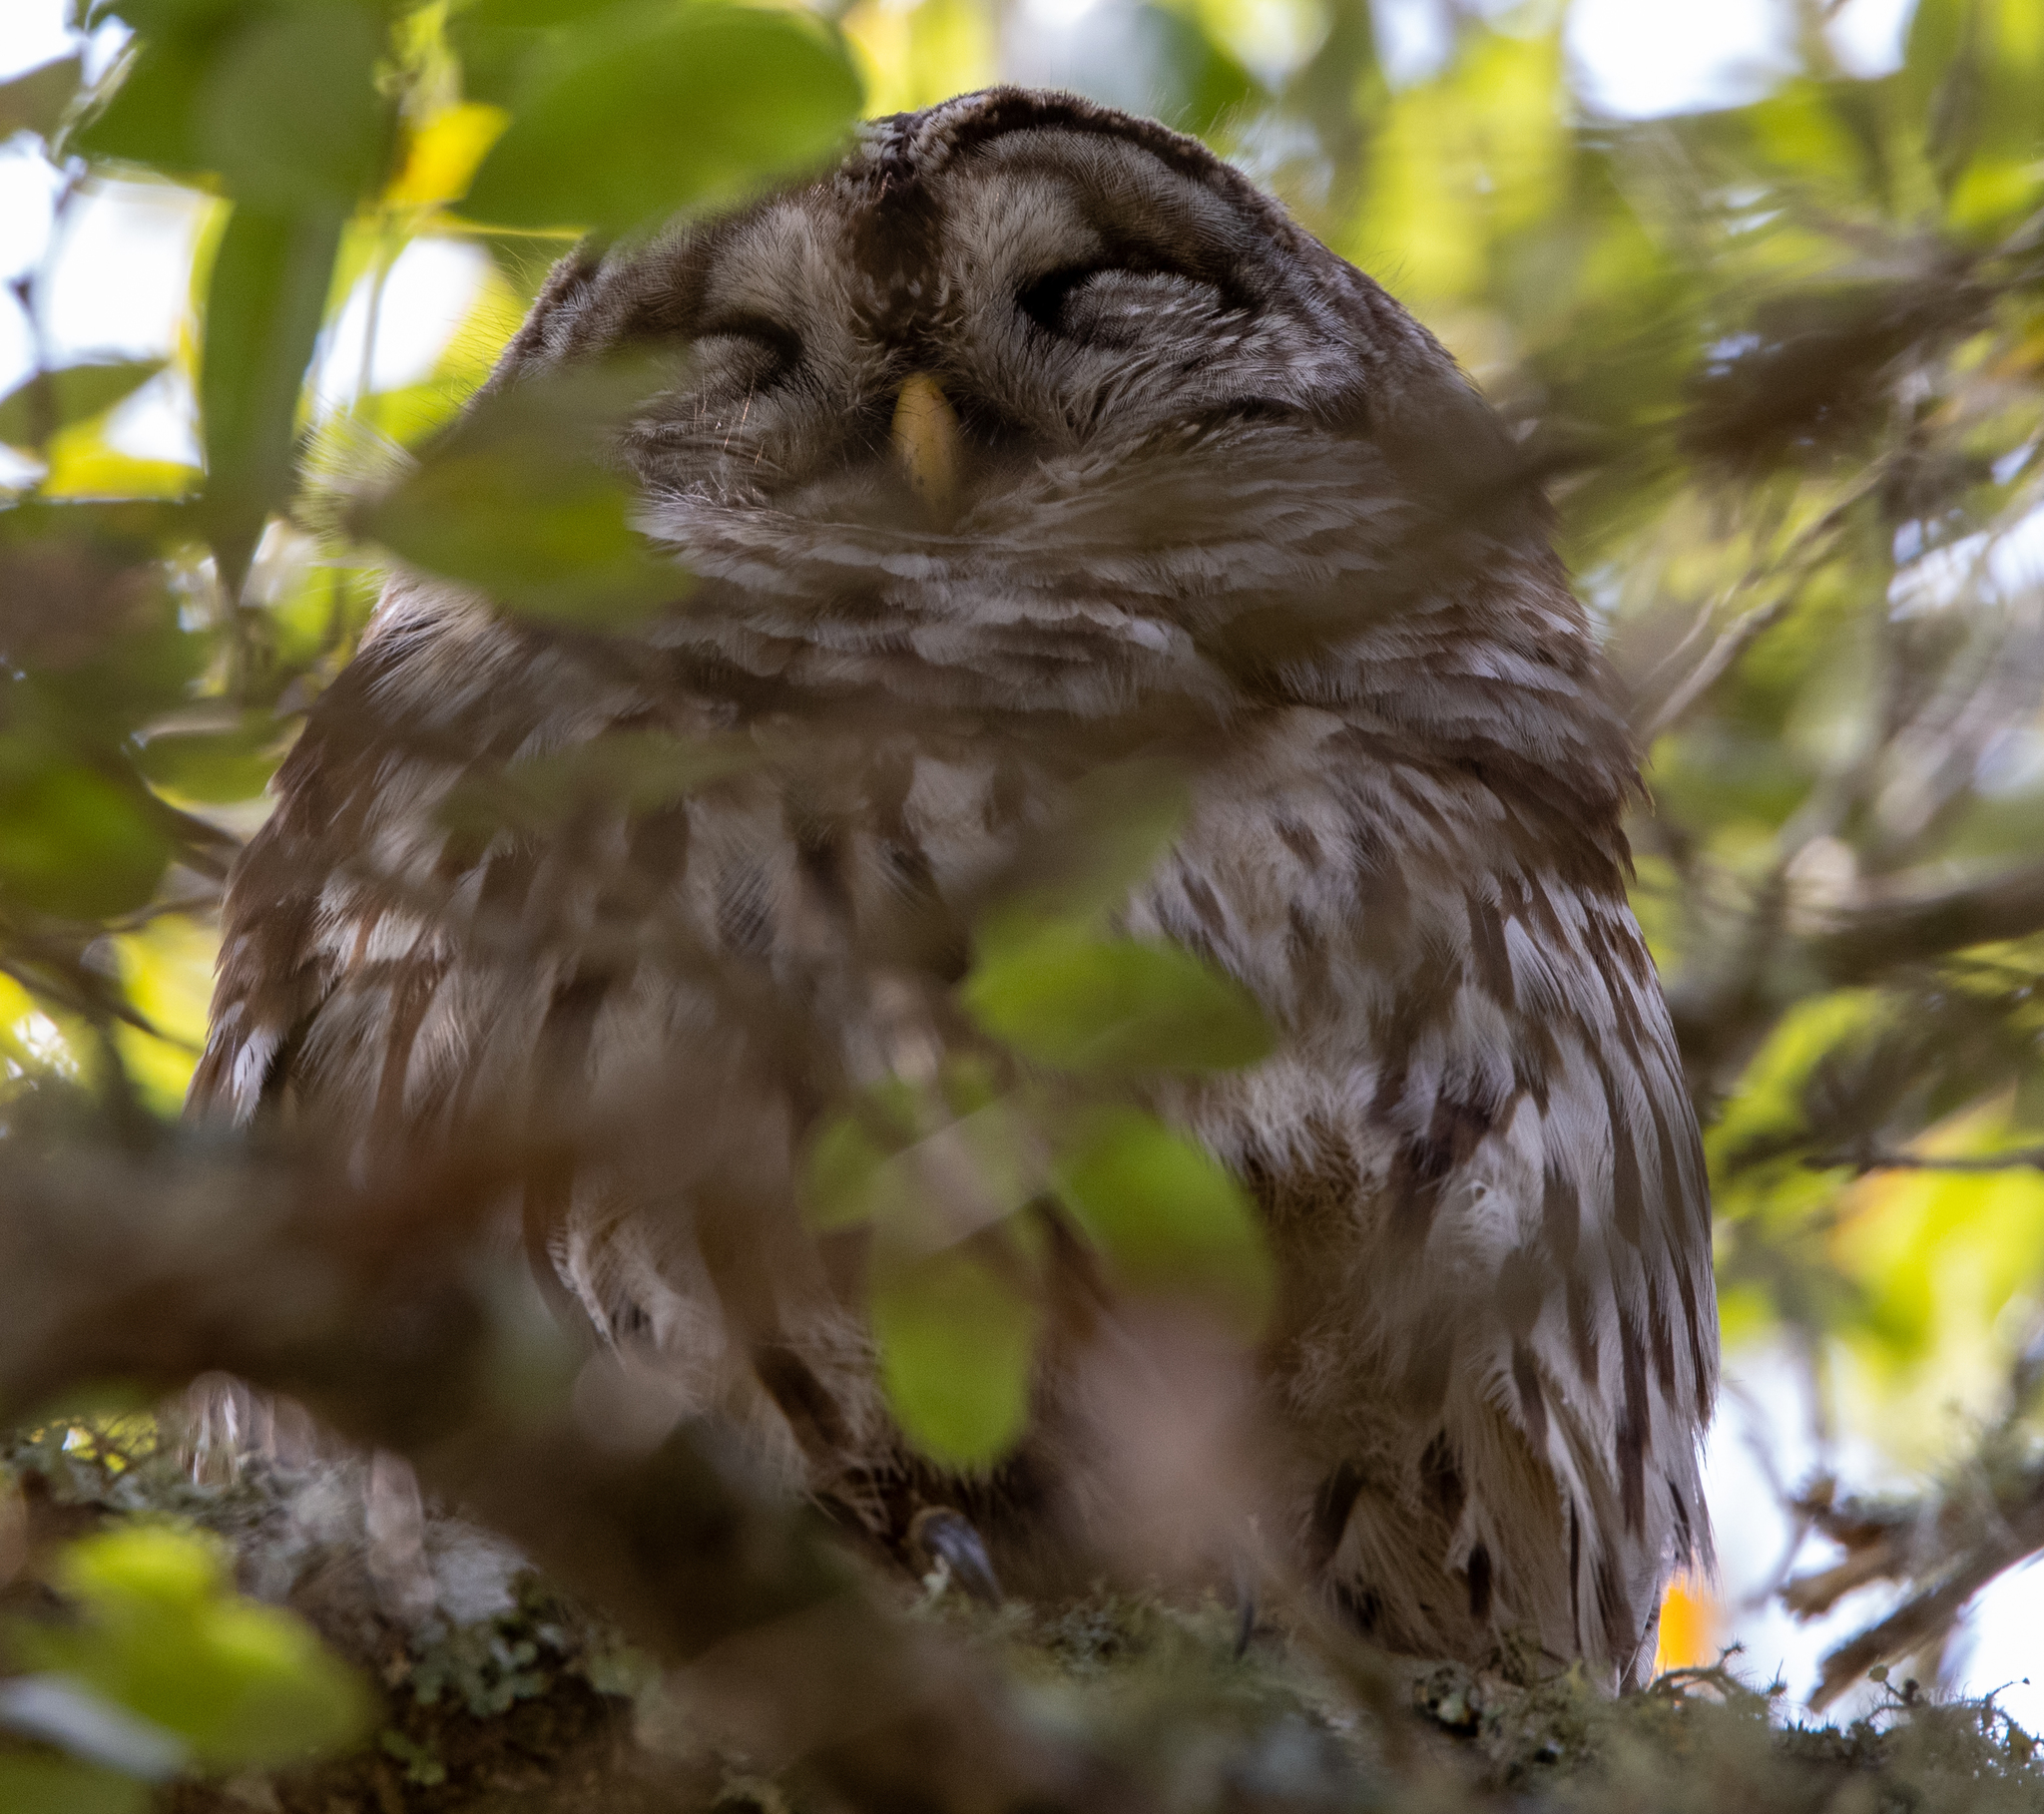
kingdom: Animalia
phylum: Chordata
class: Aves
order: Strigiformes
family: Strigidae
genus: Strix
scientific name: Strix varia
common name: Barred owl
